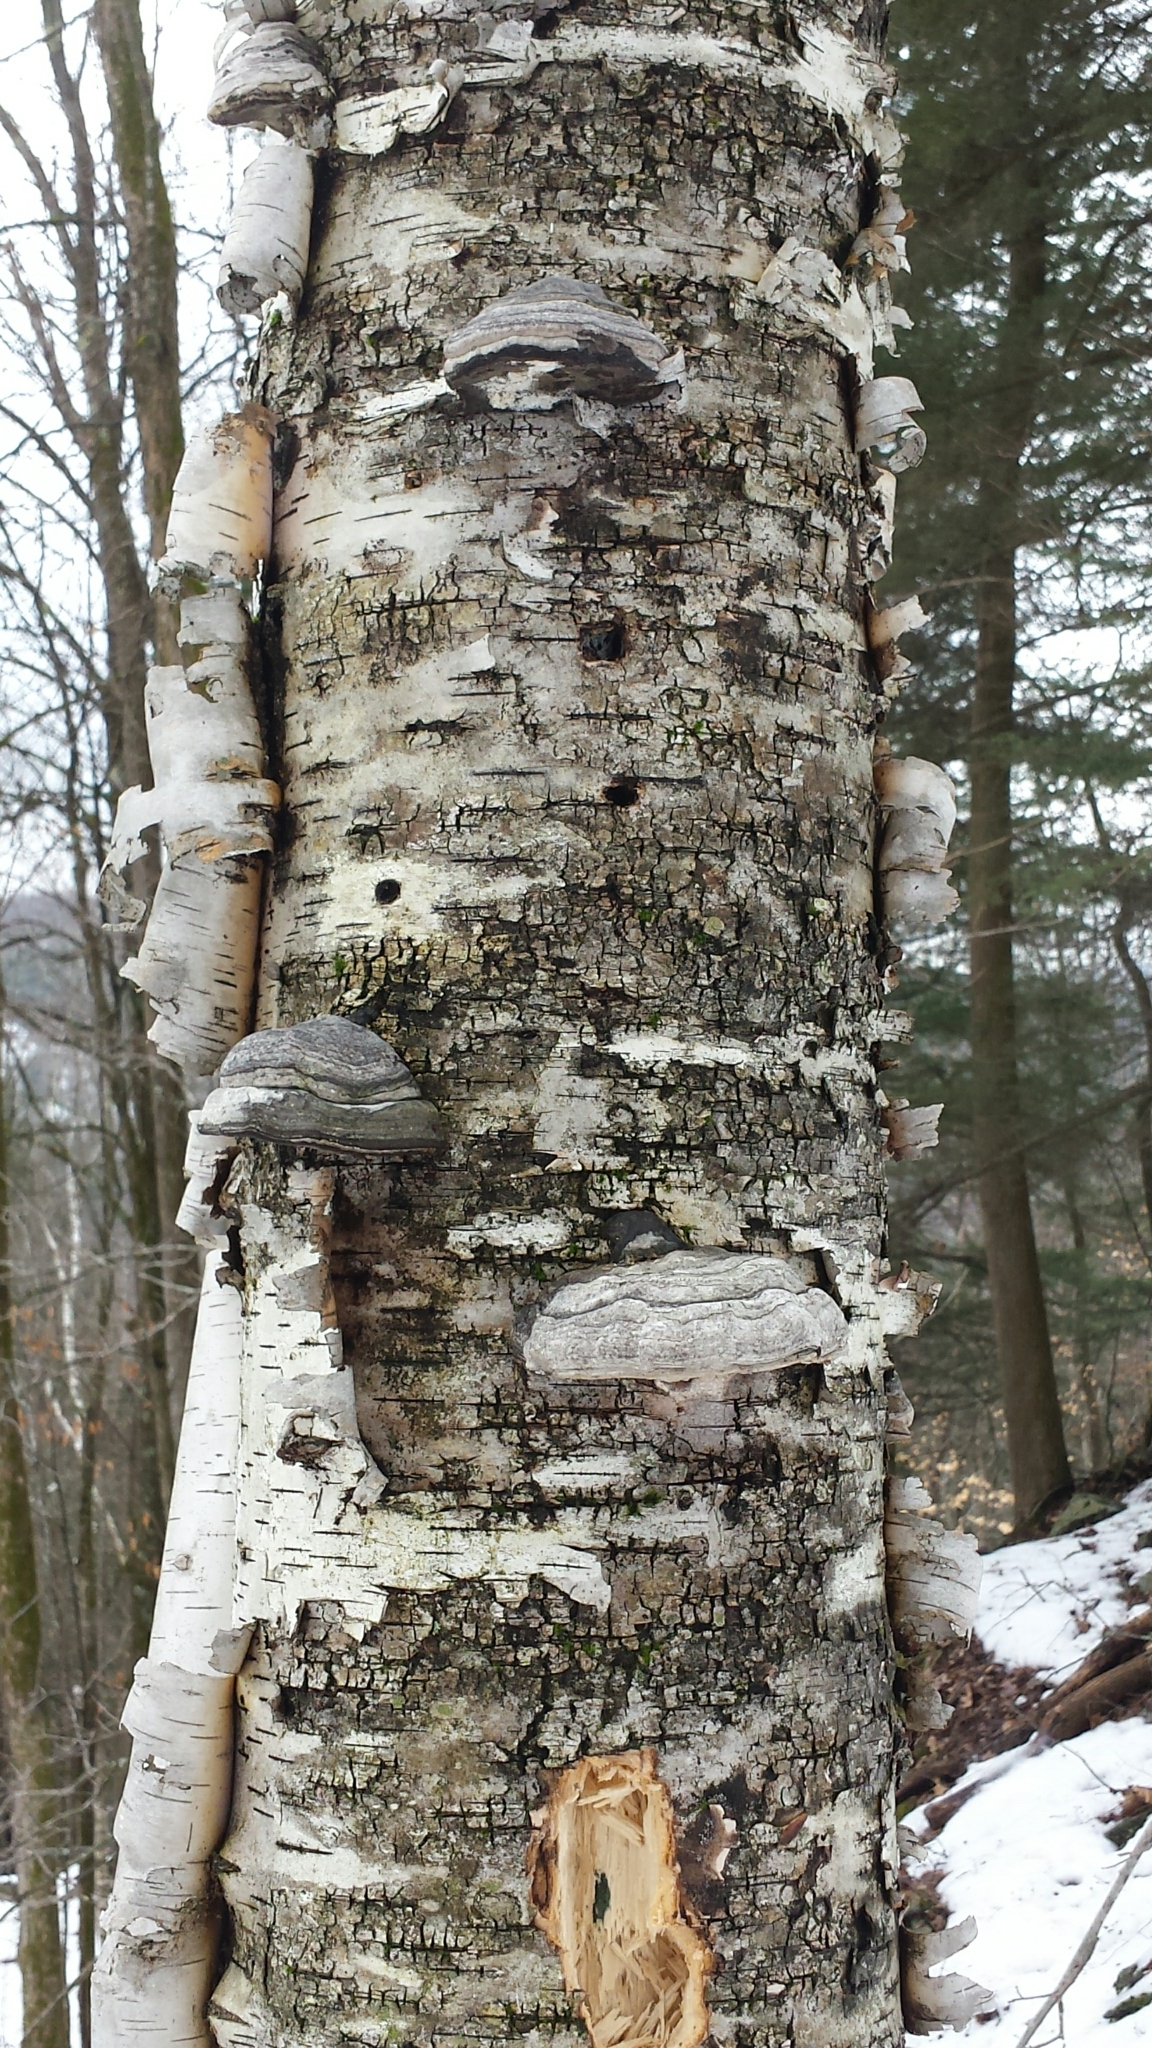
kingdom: Plantae
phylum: Tracheophyta
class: Magnoliopsida
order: Fagales
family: Betulaceae
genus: Betula
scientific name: Betula papyrifera
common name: Paper birch
